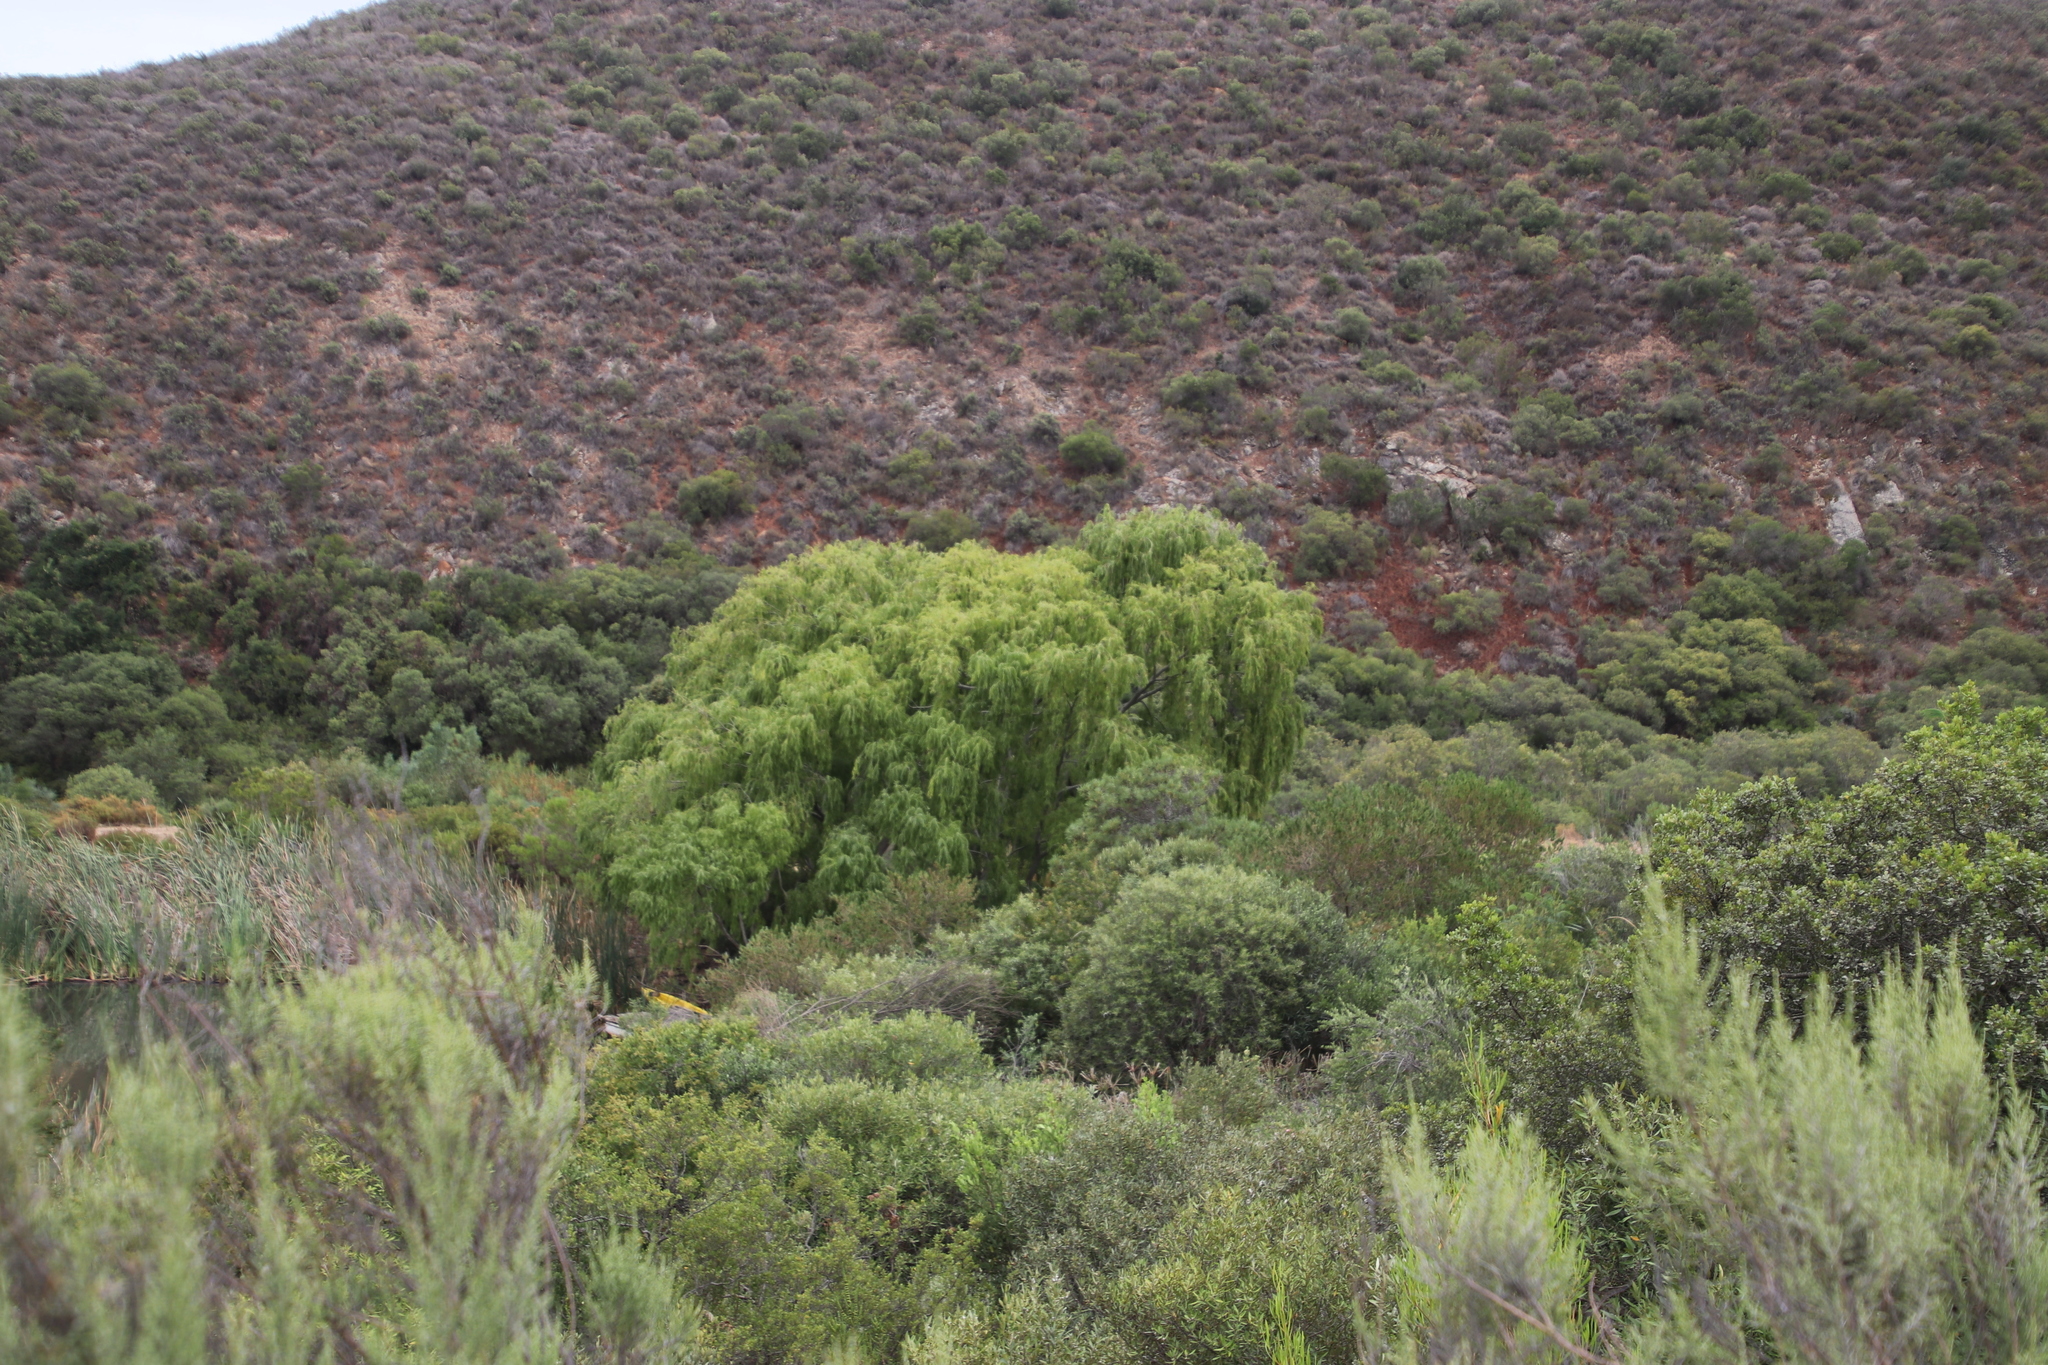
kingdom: Plantae
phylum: Tracheophyta
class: Magnoliopsida
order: Malpighiales
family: Salicaceae
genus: Salix
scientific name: Salix babylonica
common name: Weeping willow
